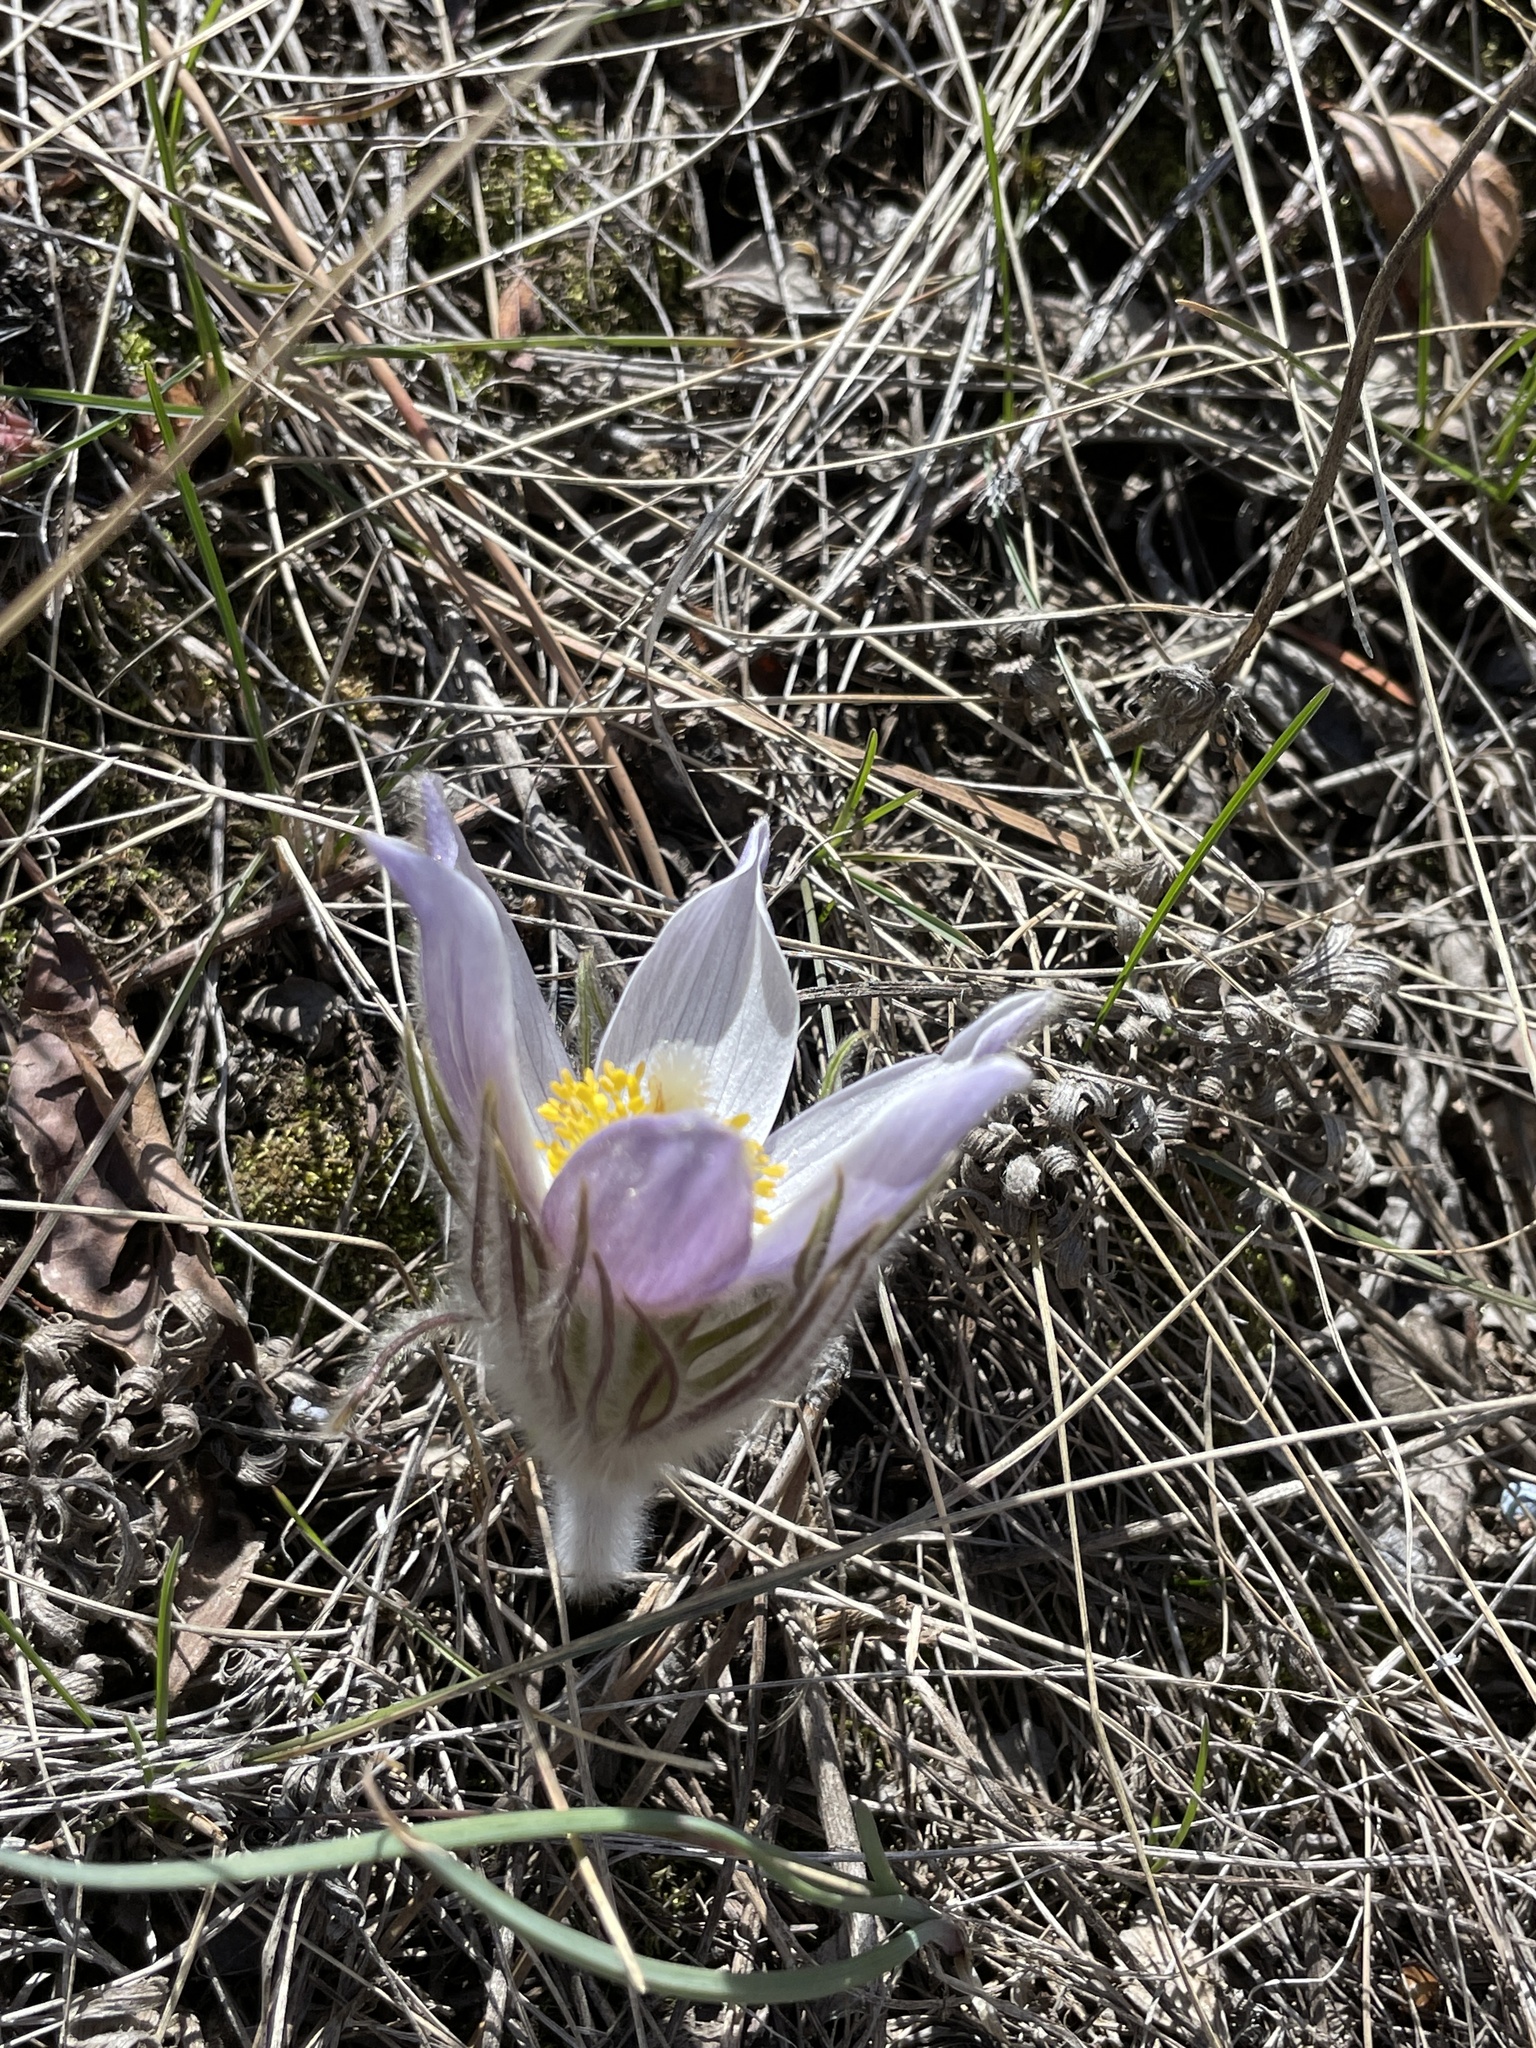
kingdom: Plantae
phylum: Tracheophyta
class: Magnoliopsida
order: Ranunculales
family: Ranunculaceae
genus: Pulsatilla
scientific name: Pulsatilla nuttalliana
